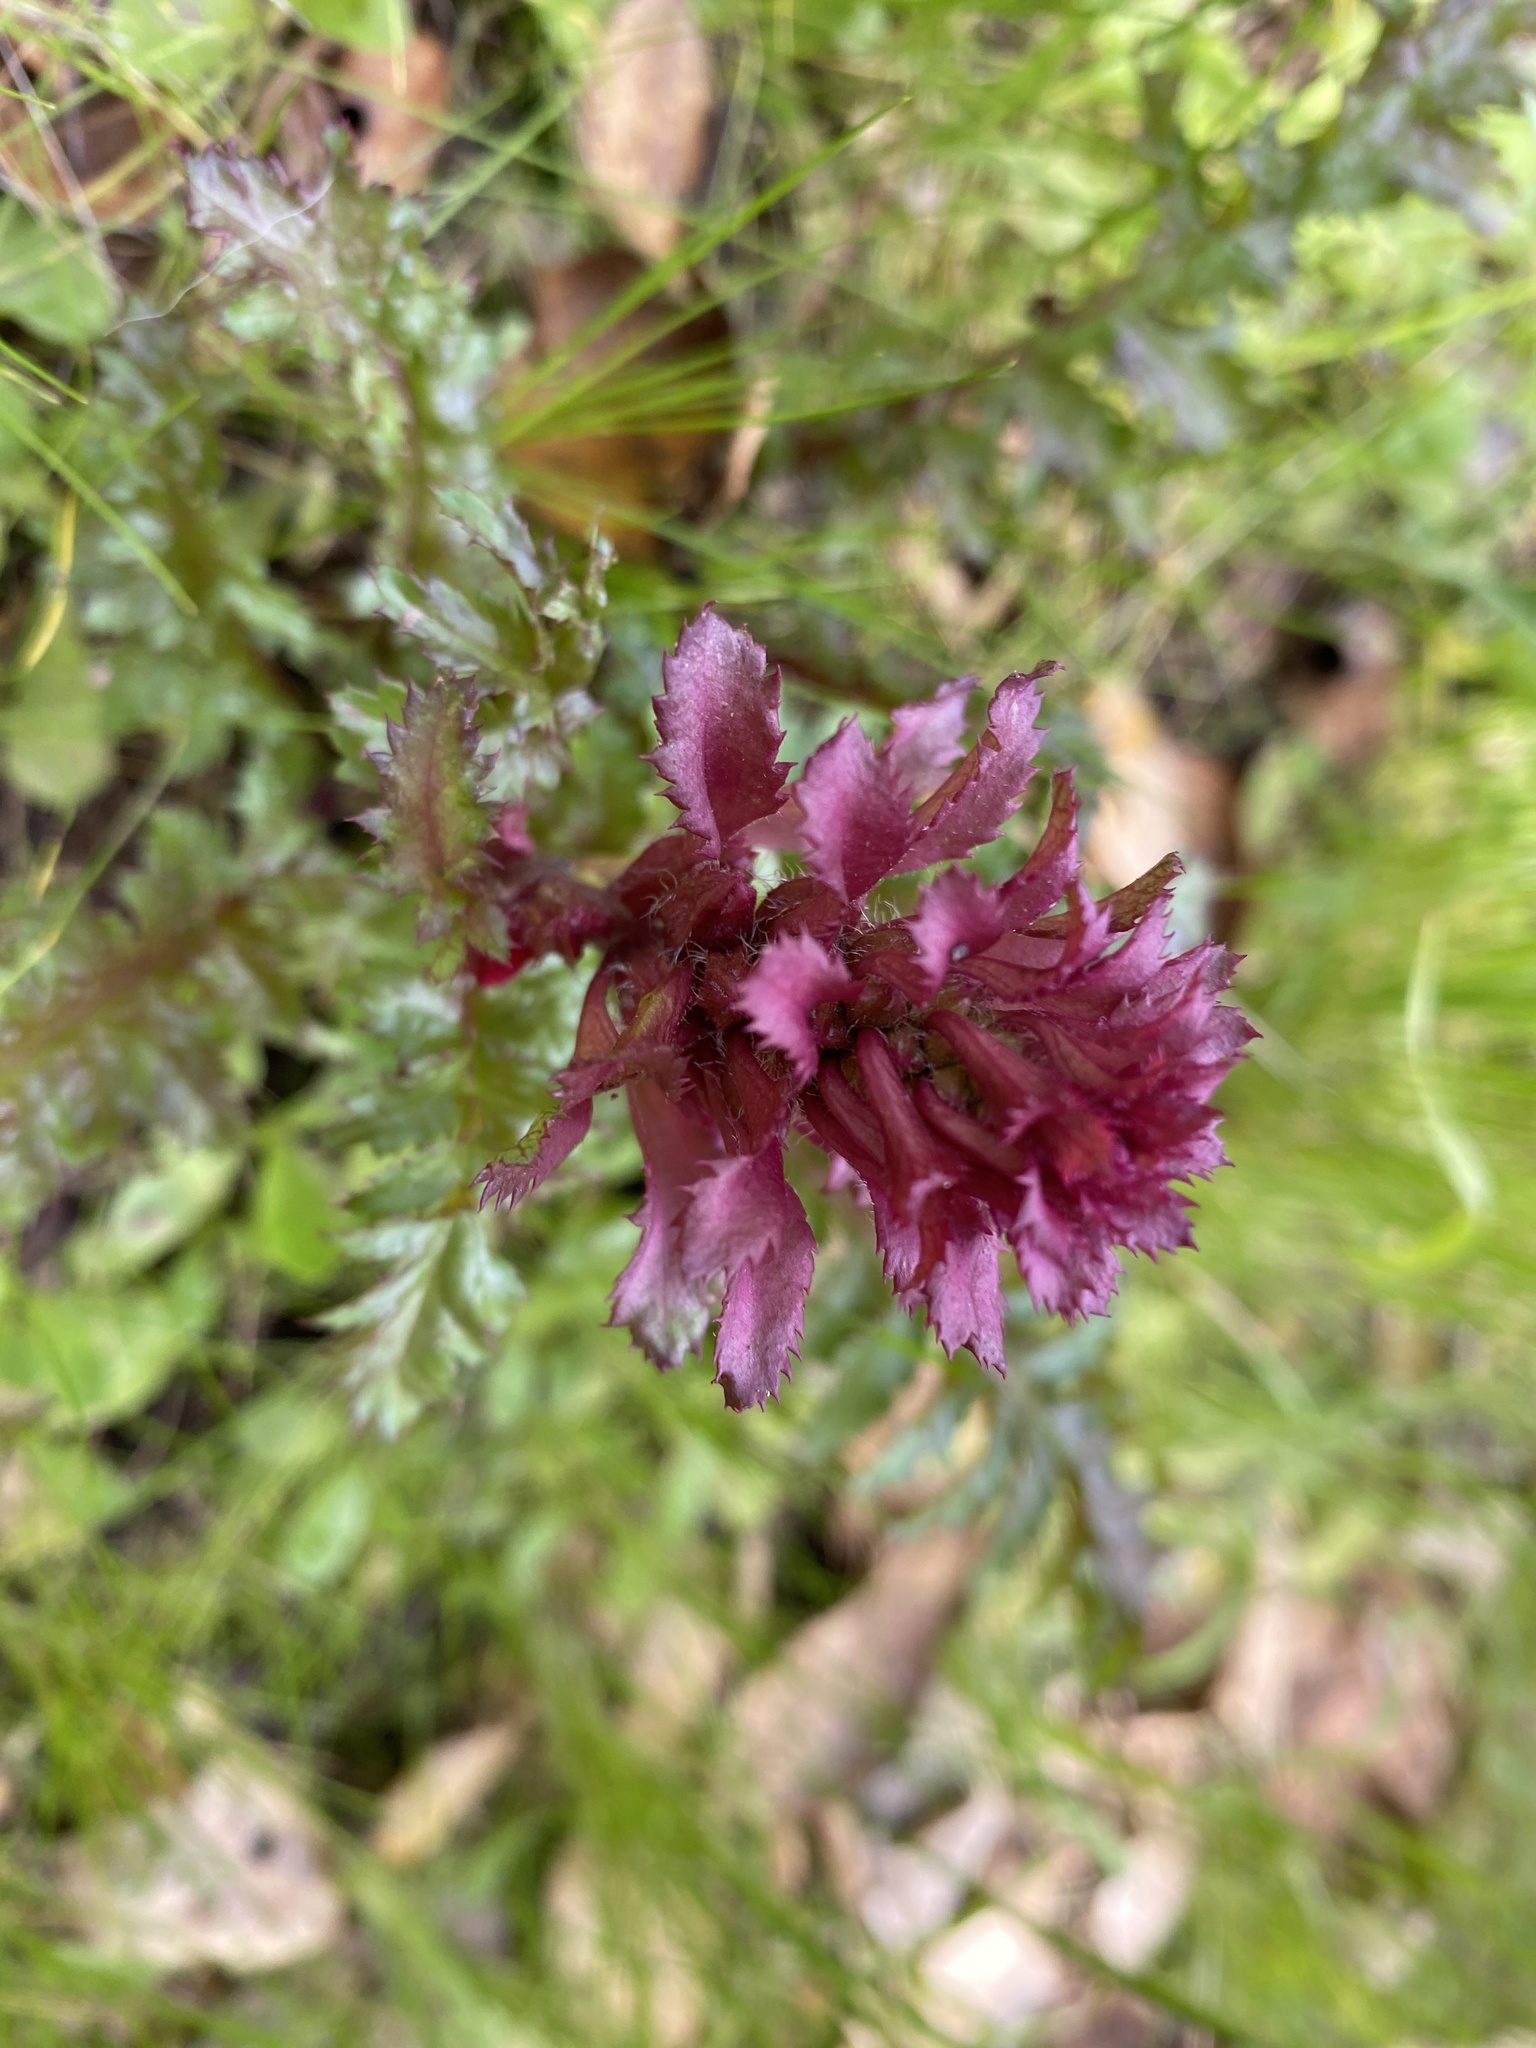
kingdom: Plantae
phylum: Tracheophyta
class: Magnoliopsida
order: Lamiales
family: Orobanchaceae
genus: Pedicularis
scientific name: Pedicularis densiflora
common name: Indian warrior
